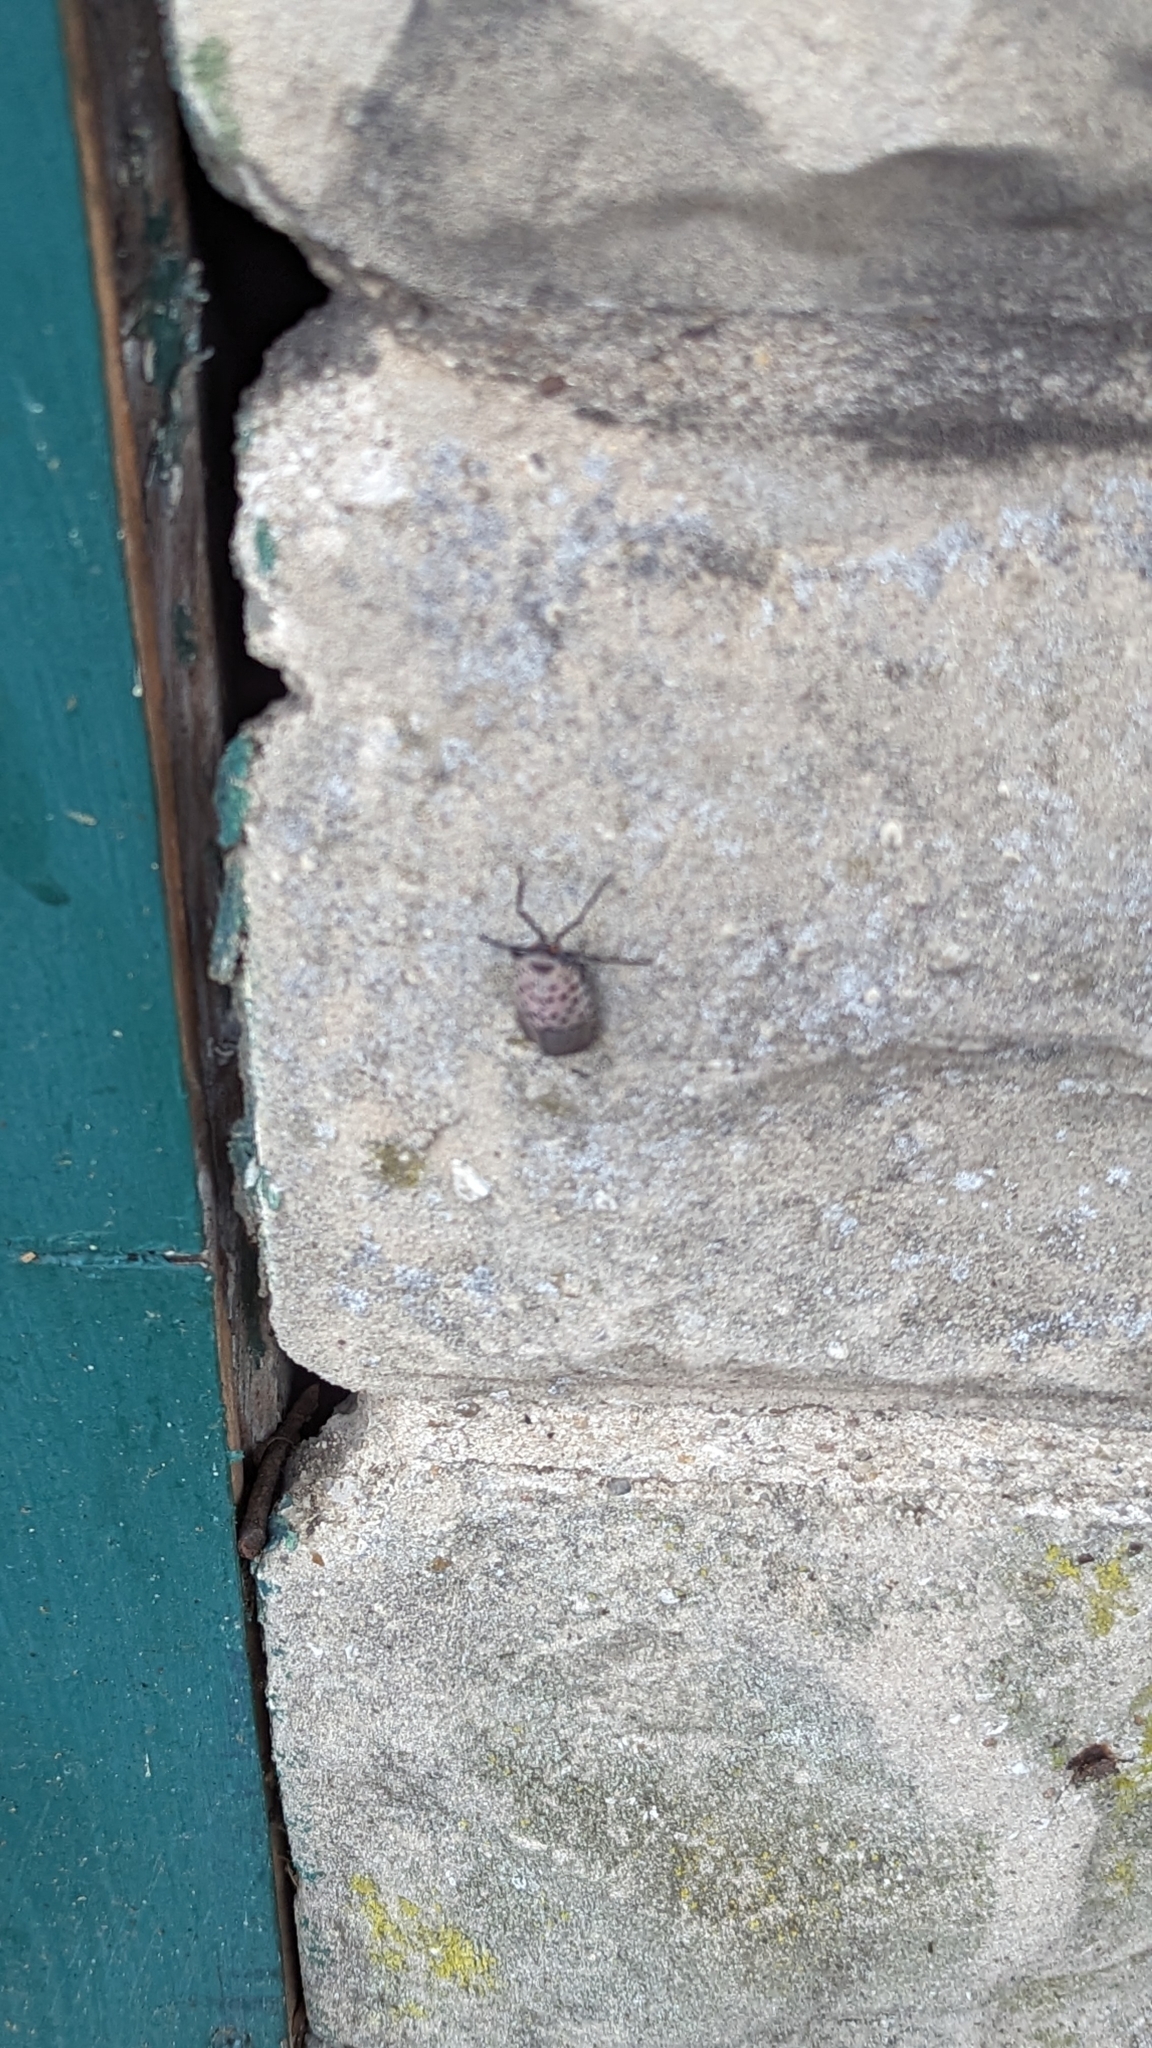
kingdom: Animalia
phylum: Arthropoda
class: Insecta
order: Hemiptera
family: Fulgoridae
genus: Lycorma
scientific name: Lycorma delicatula
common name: Spotted lanternfly
